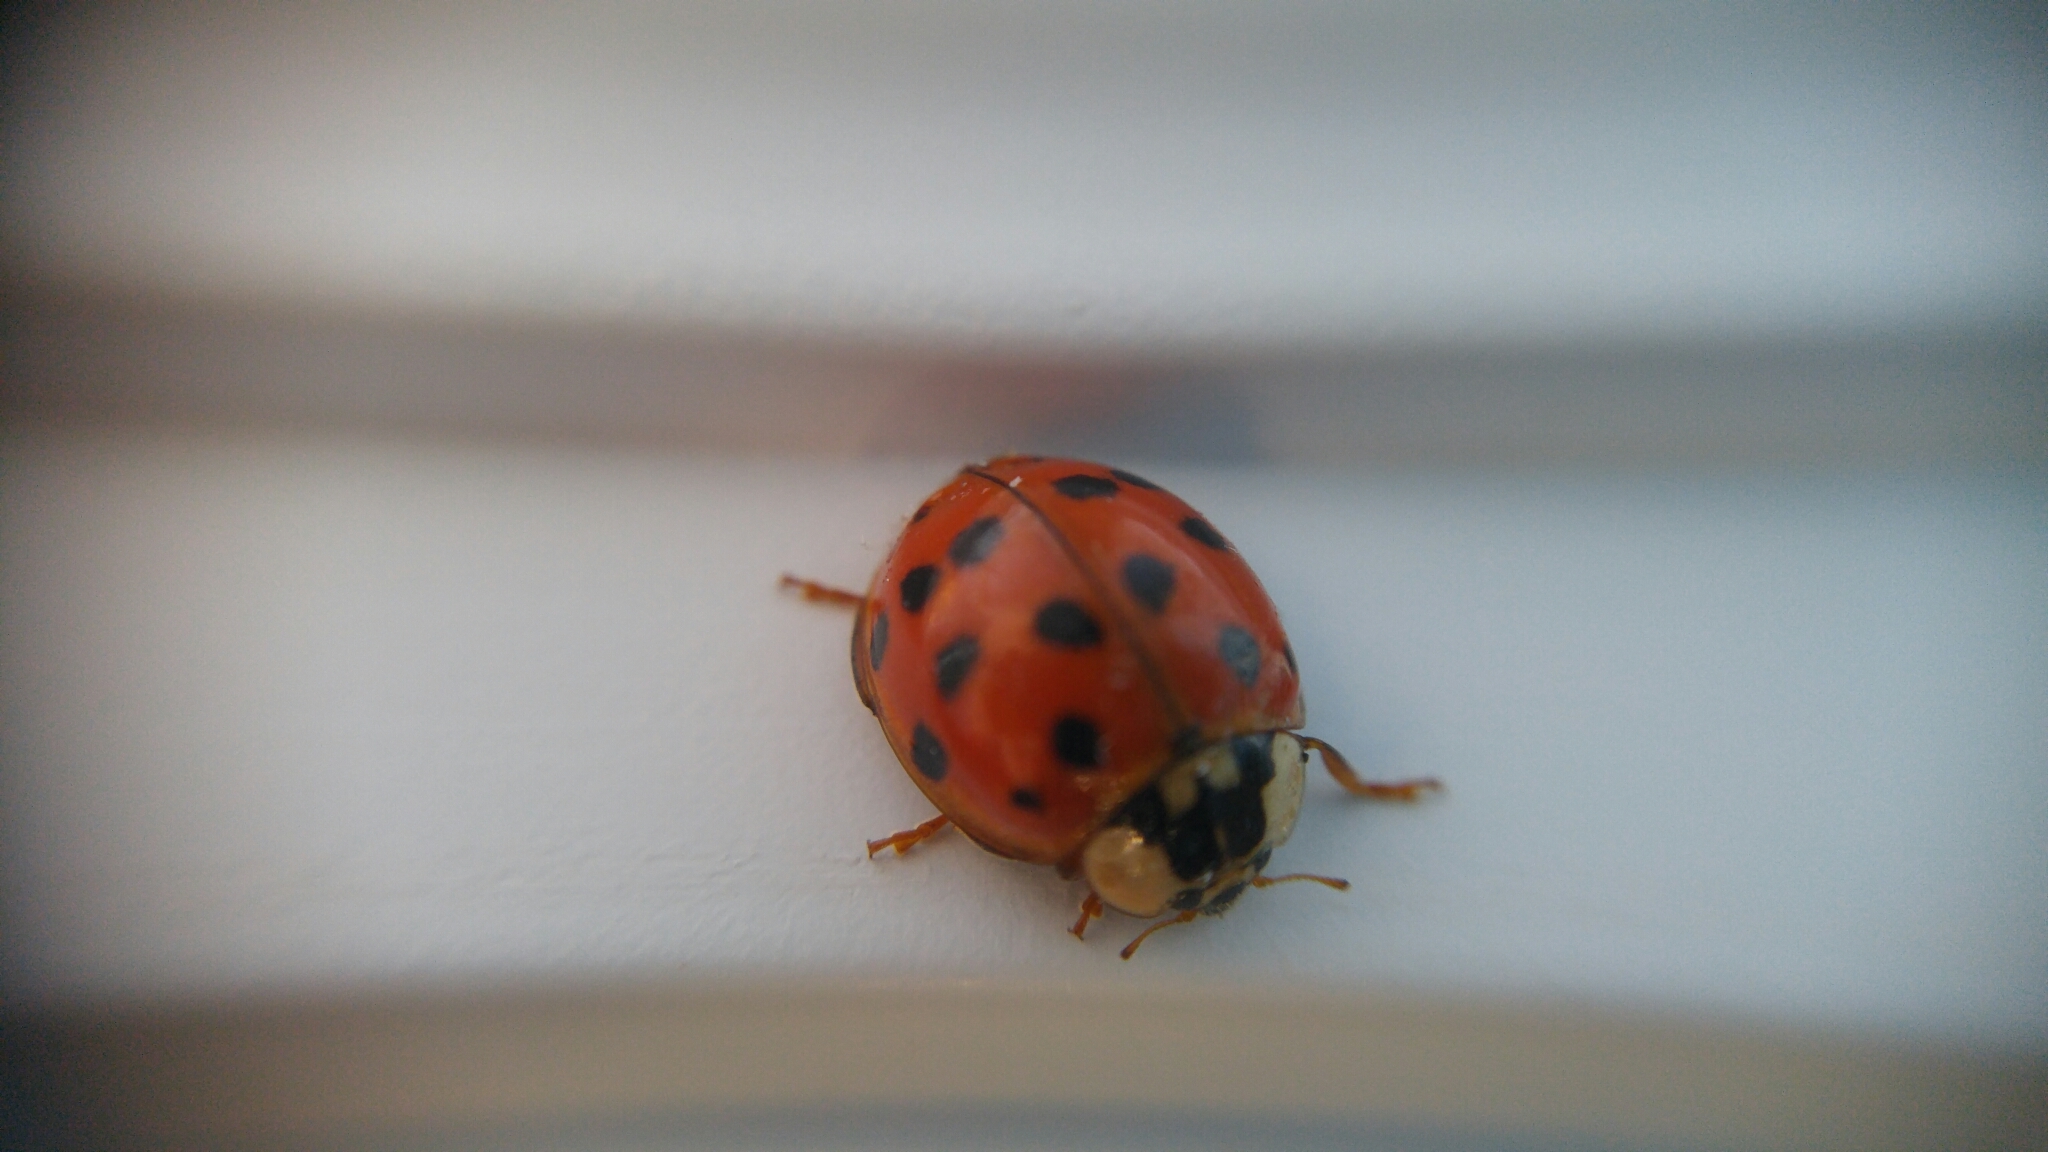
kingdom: Animalia
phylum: Arthropoda
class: Insecta
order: Coleoptera
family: Coccinellidae
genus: Harmonia
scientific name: Harmonia axyridis
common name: Harlequin ladybird
